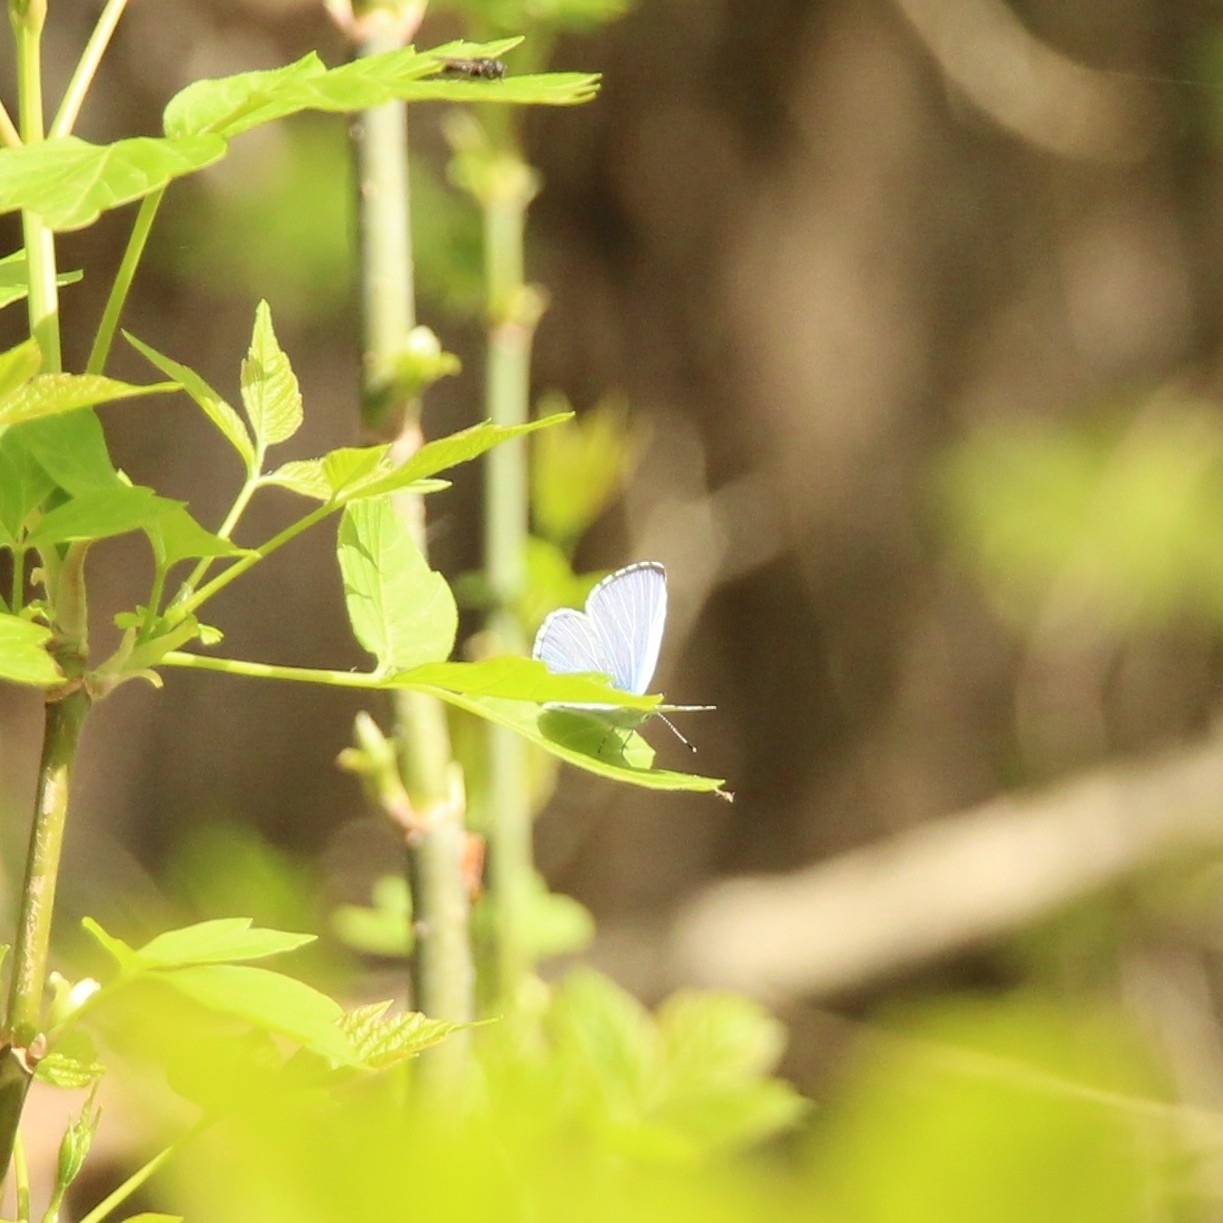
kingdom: Animalia
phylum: Arthropoda
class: Insecta
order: Lepidoptera
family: Lycaenidae
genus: Celastrina
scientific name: Celastrina argiolus
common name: Holly blue
